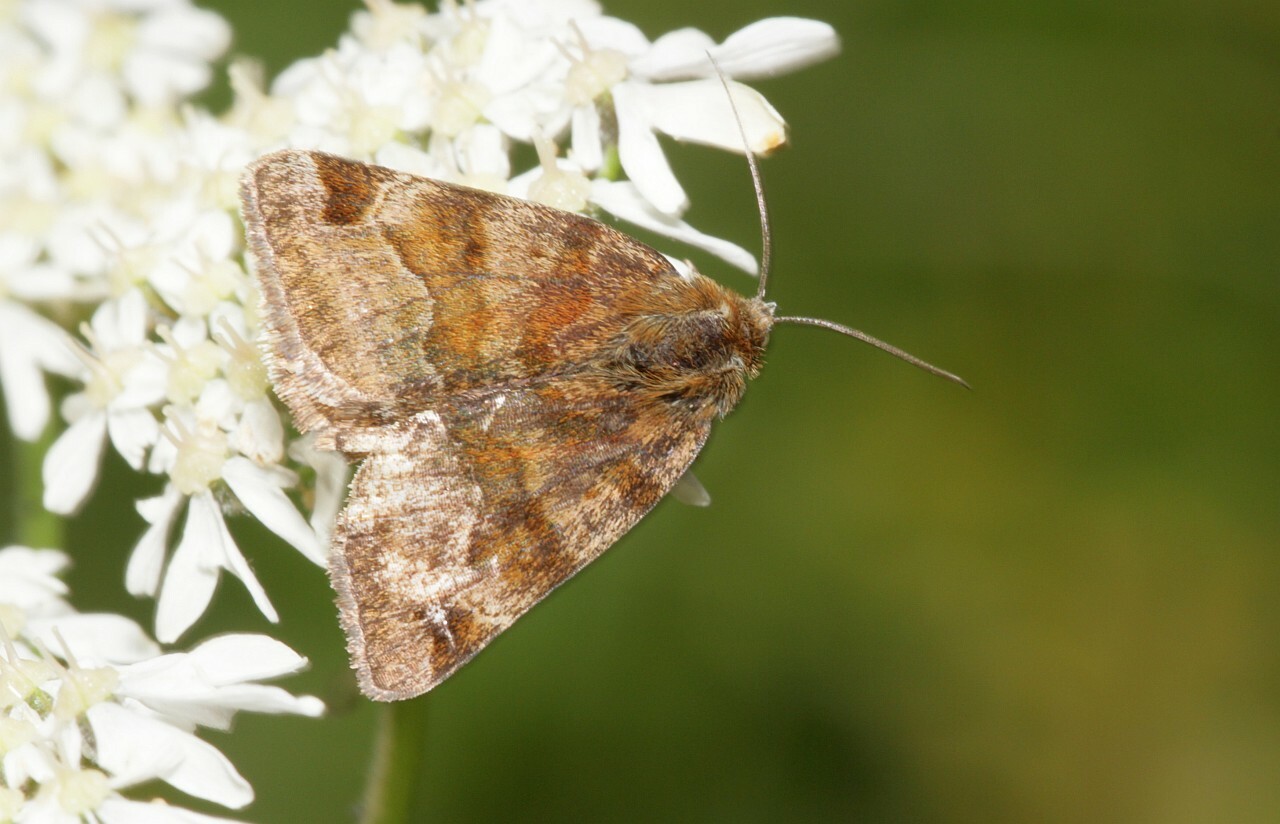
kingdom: Animalia
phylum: Arthropoda
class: Insecta
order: Lepidoptera
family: Erebidae
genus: Euclidia
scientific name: Euclidia glyphica
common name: Burnet companion
